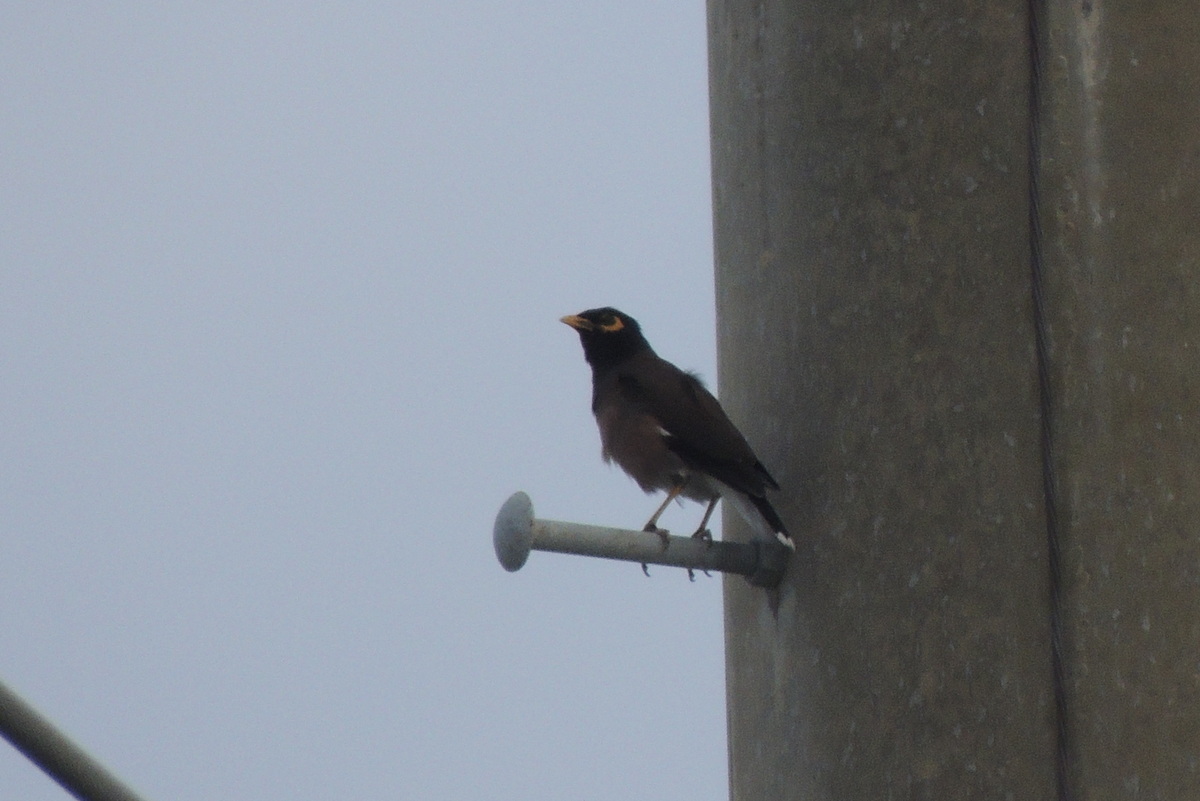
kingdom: Animalia
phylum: Chordata
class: Aves
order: Passeriformes
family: Sturnidae
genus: Acridotheres
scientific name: Acridotheres tristis
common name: Common myna
